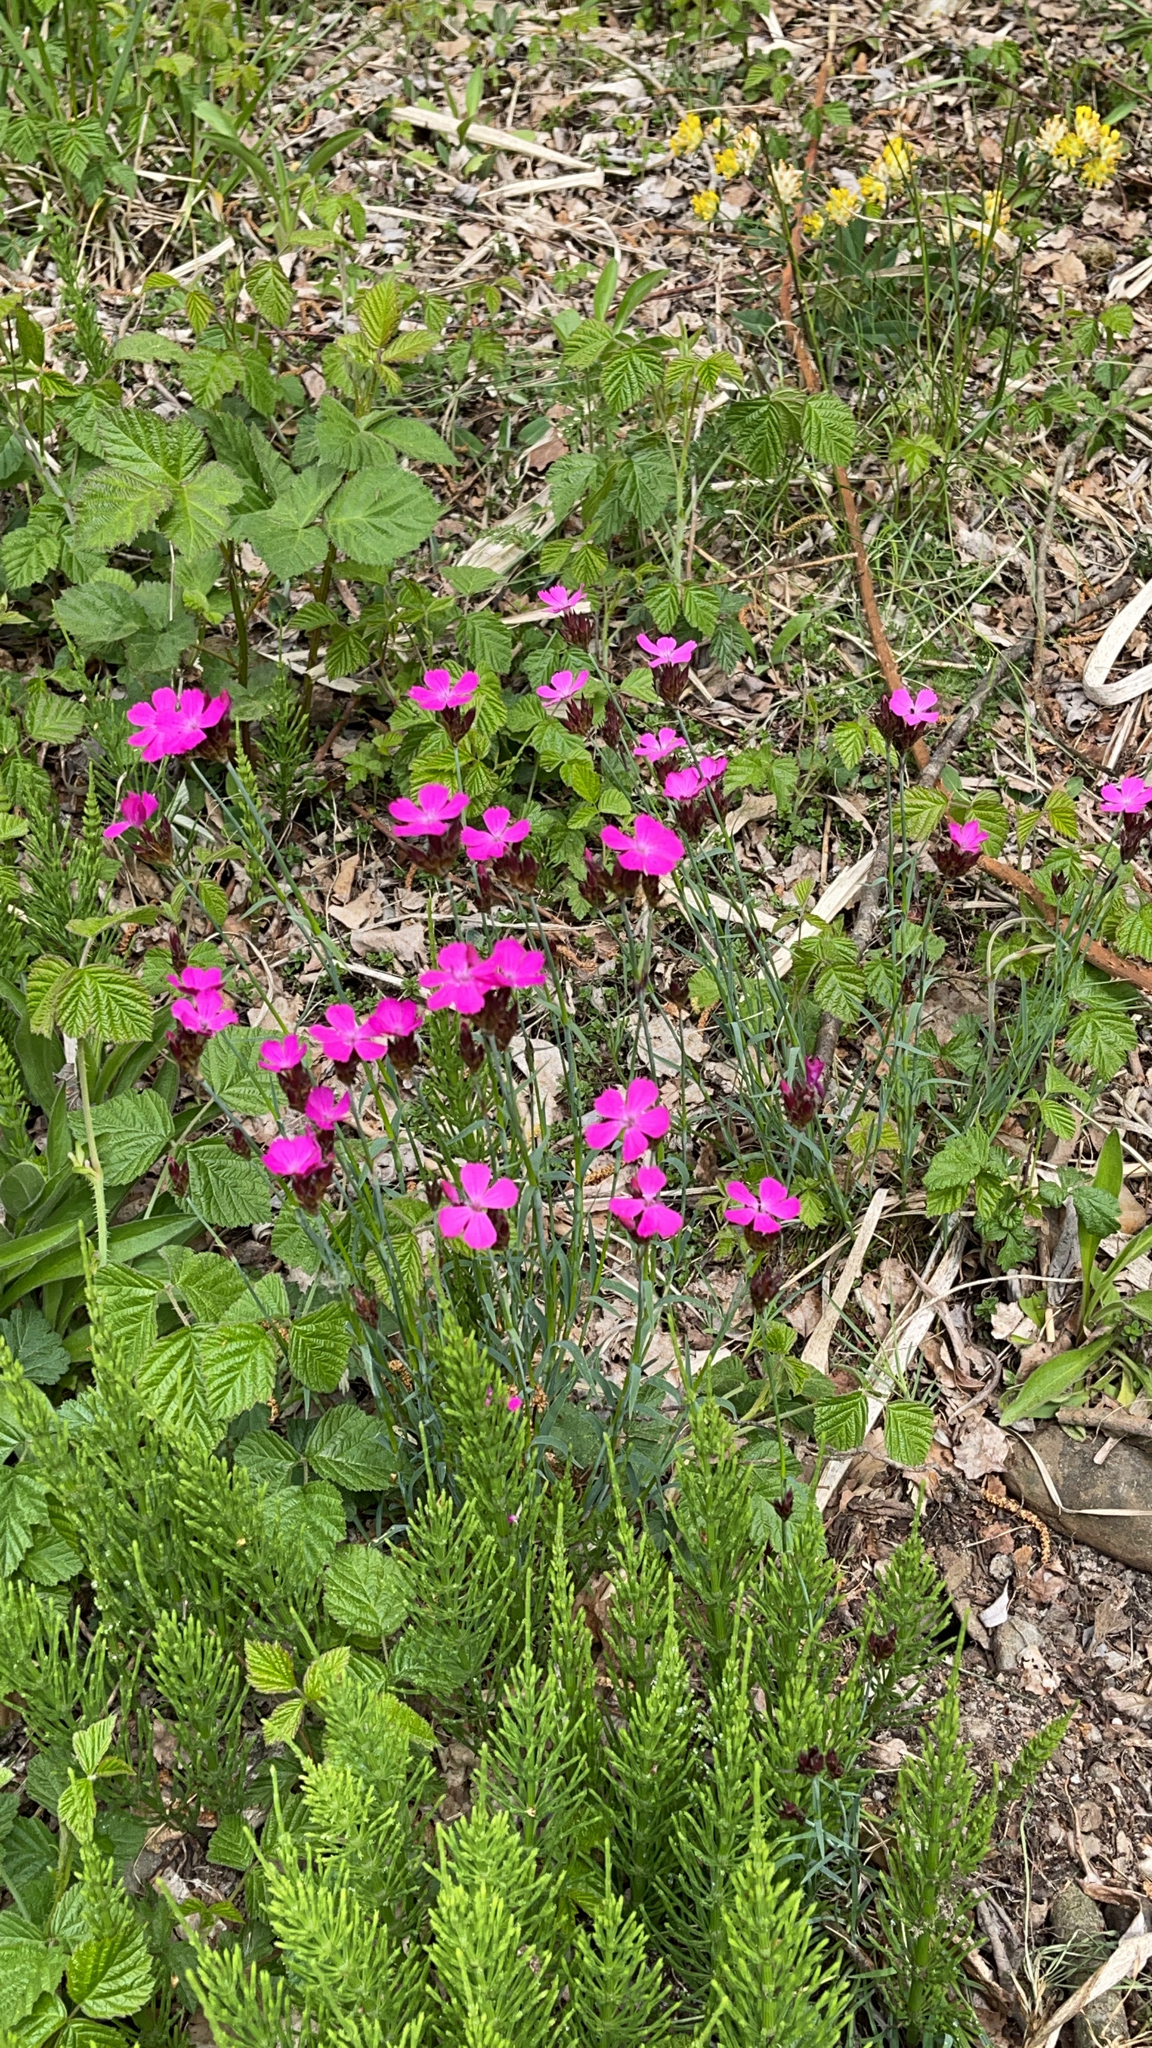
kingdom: Plantae
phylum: Tracheophyta
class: Magnoliopsida
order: Caryophyllales
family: Caryophyllaceae
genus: Dianthus
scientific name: Dianthus carthusianorum
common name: Carthusian pink
